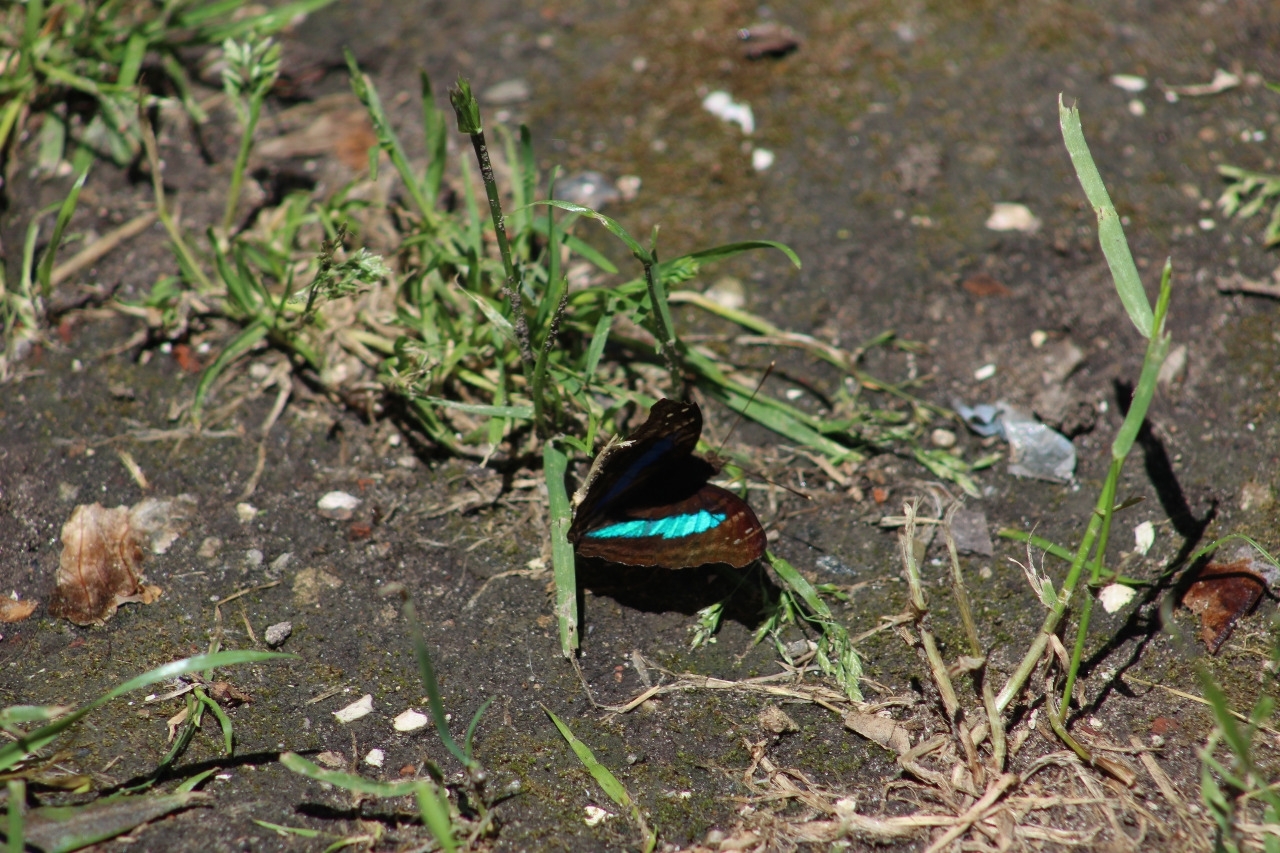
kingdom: Animalia
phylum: Arthropoda
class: Insecta
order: Lepidoptera
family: Nymphalidae
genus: Doxocopa
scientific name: Doxocopa laurentia
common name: Turquoise emperor
